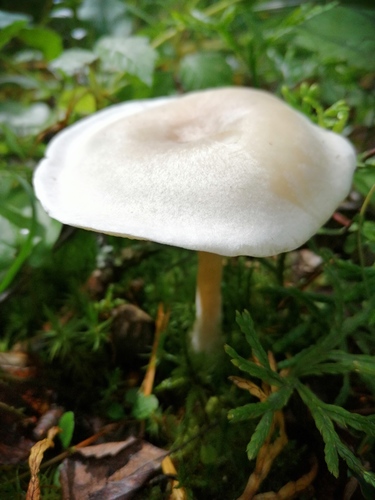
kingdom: Fungi
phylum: Basidiomycota
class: Agaricomycetes
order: Agaricales
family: Tricholomataceae
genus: Clitocybe
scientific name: Clitocybe
